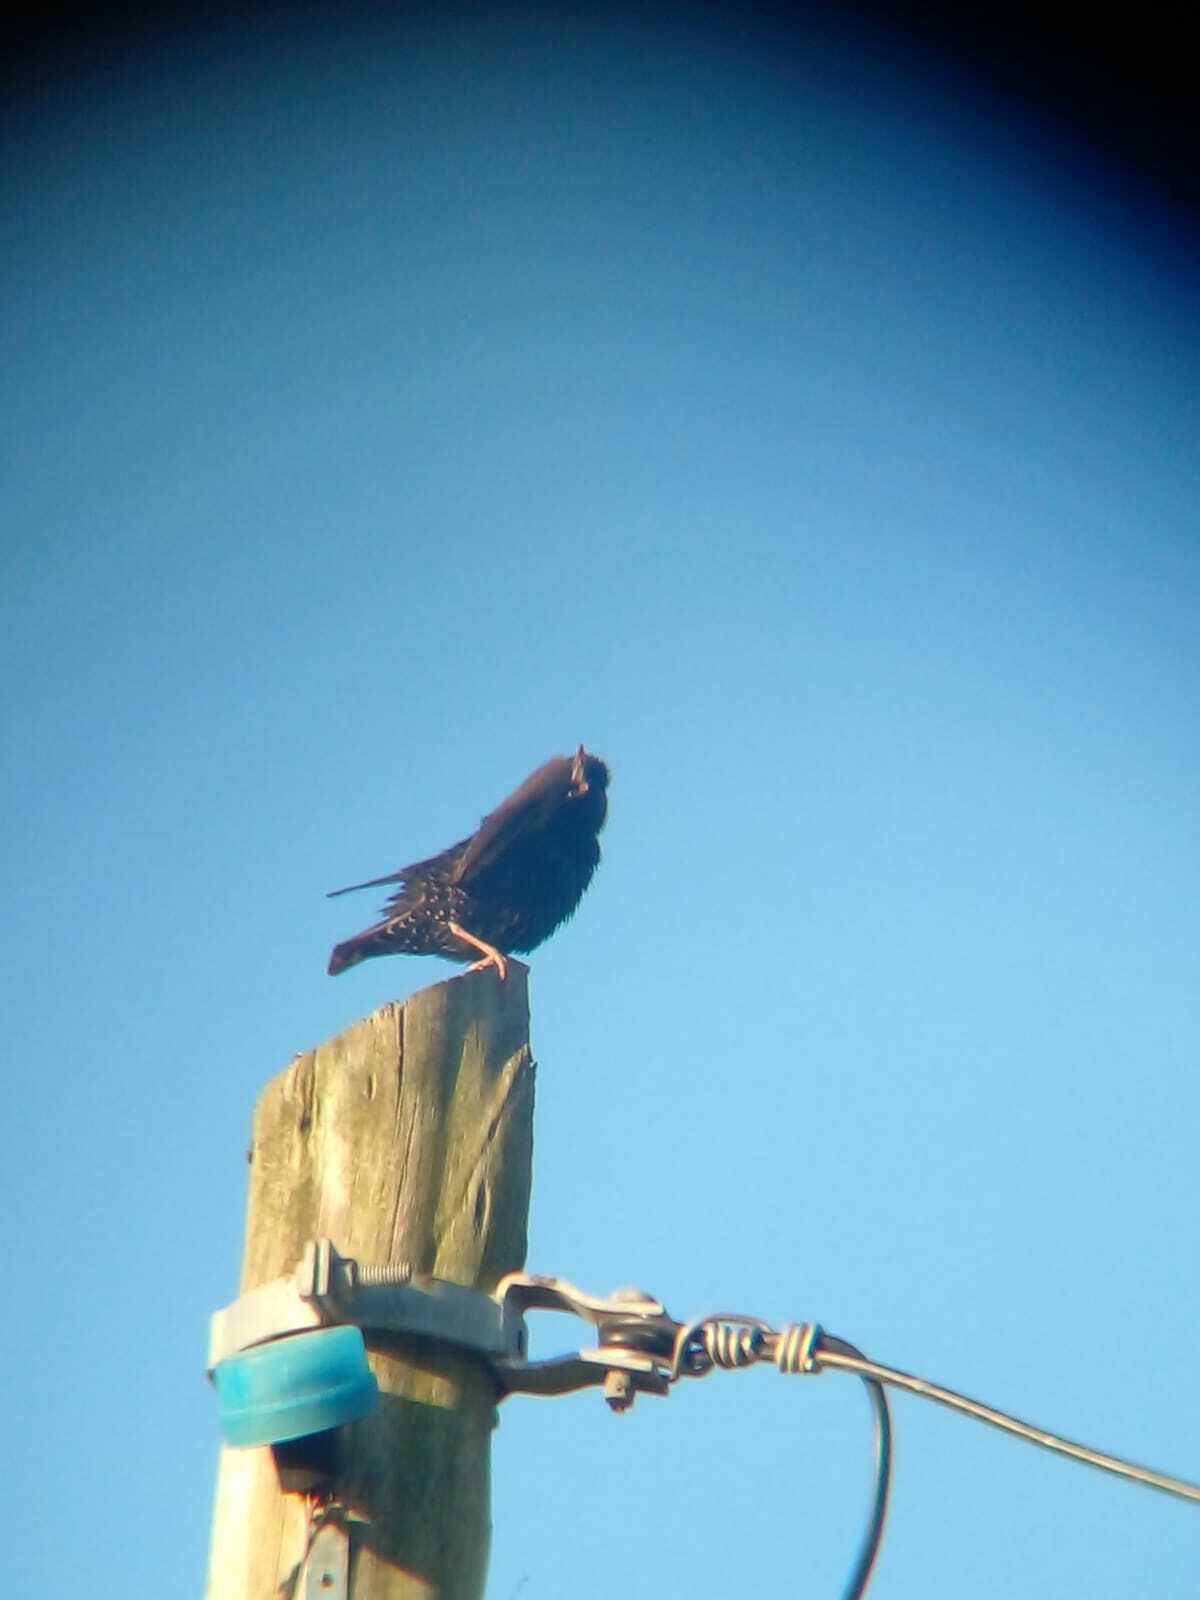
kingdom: Animalia
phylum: Chordata
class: Aves
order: Passeriformes
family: Sturnidae
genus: Sturnus
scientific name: Sturnus vulgaris
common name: Common starling
